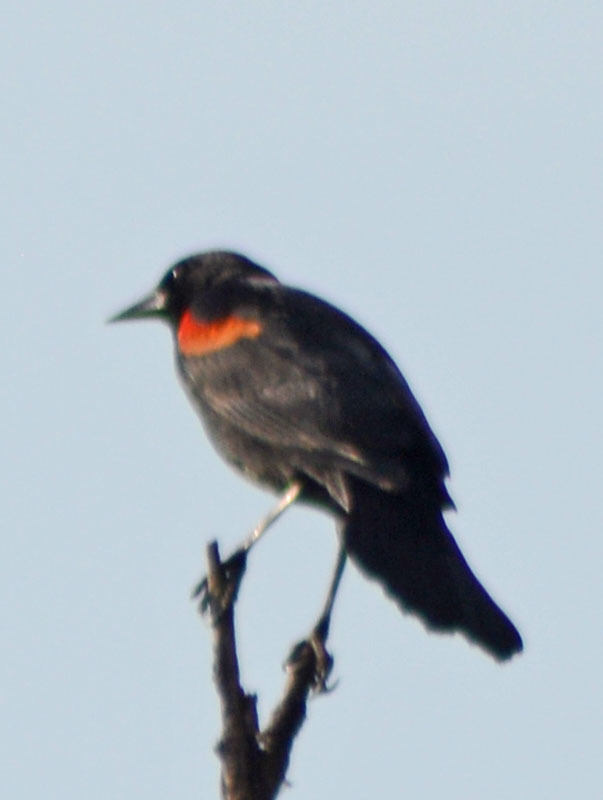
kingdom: Animalia
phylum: Chordata
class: Aves
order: Passeriformes
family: Icteridae
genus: Agelaius
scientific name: Agelaius phoeniceus
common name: Red-winged blackbird
